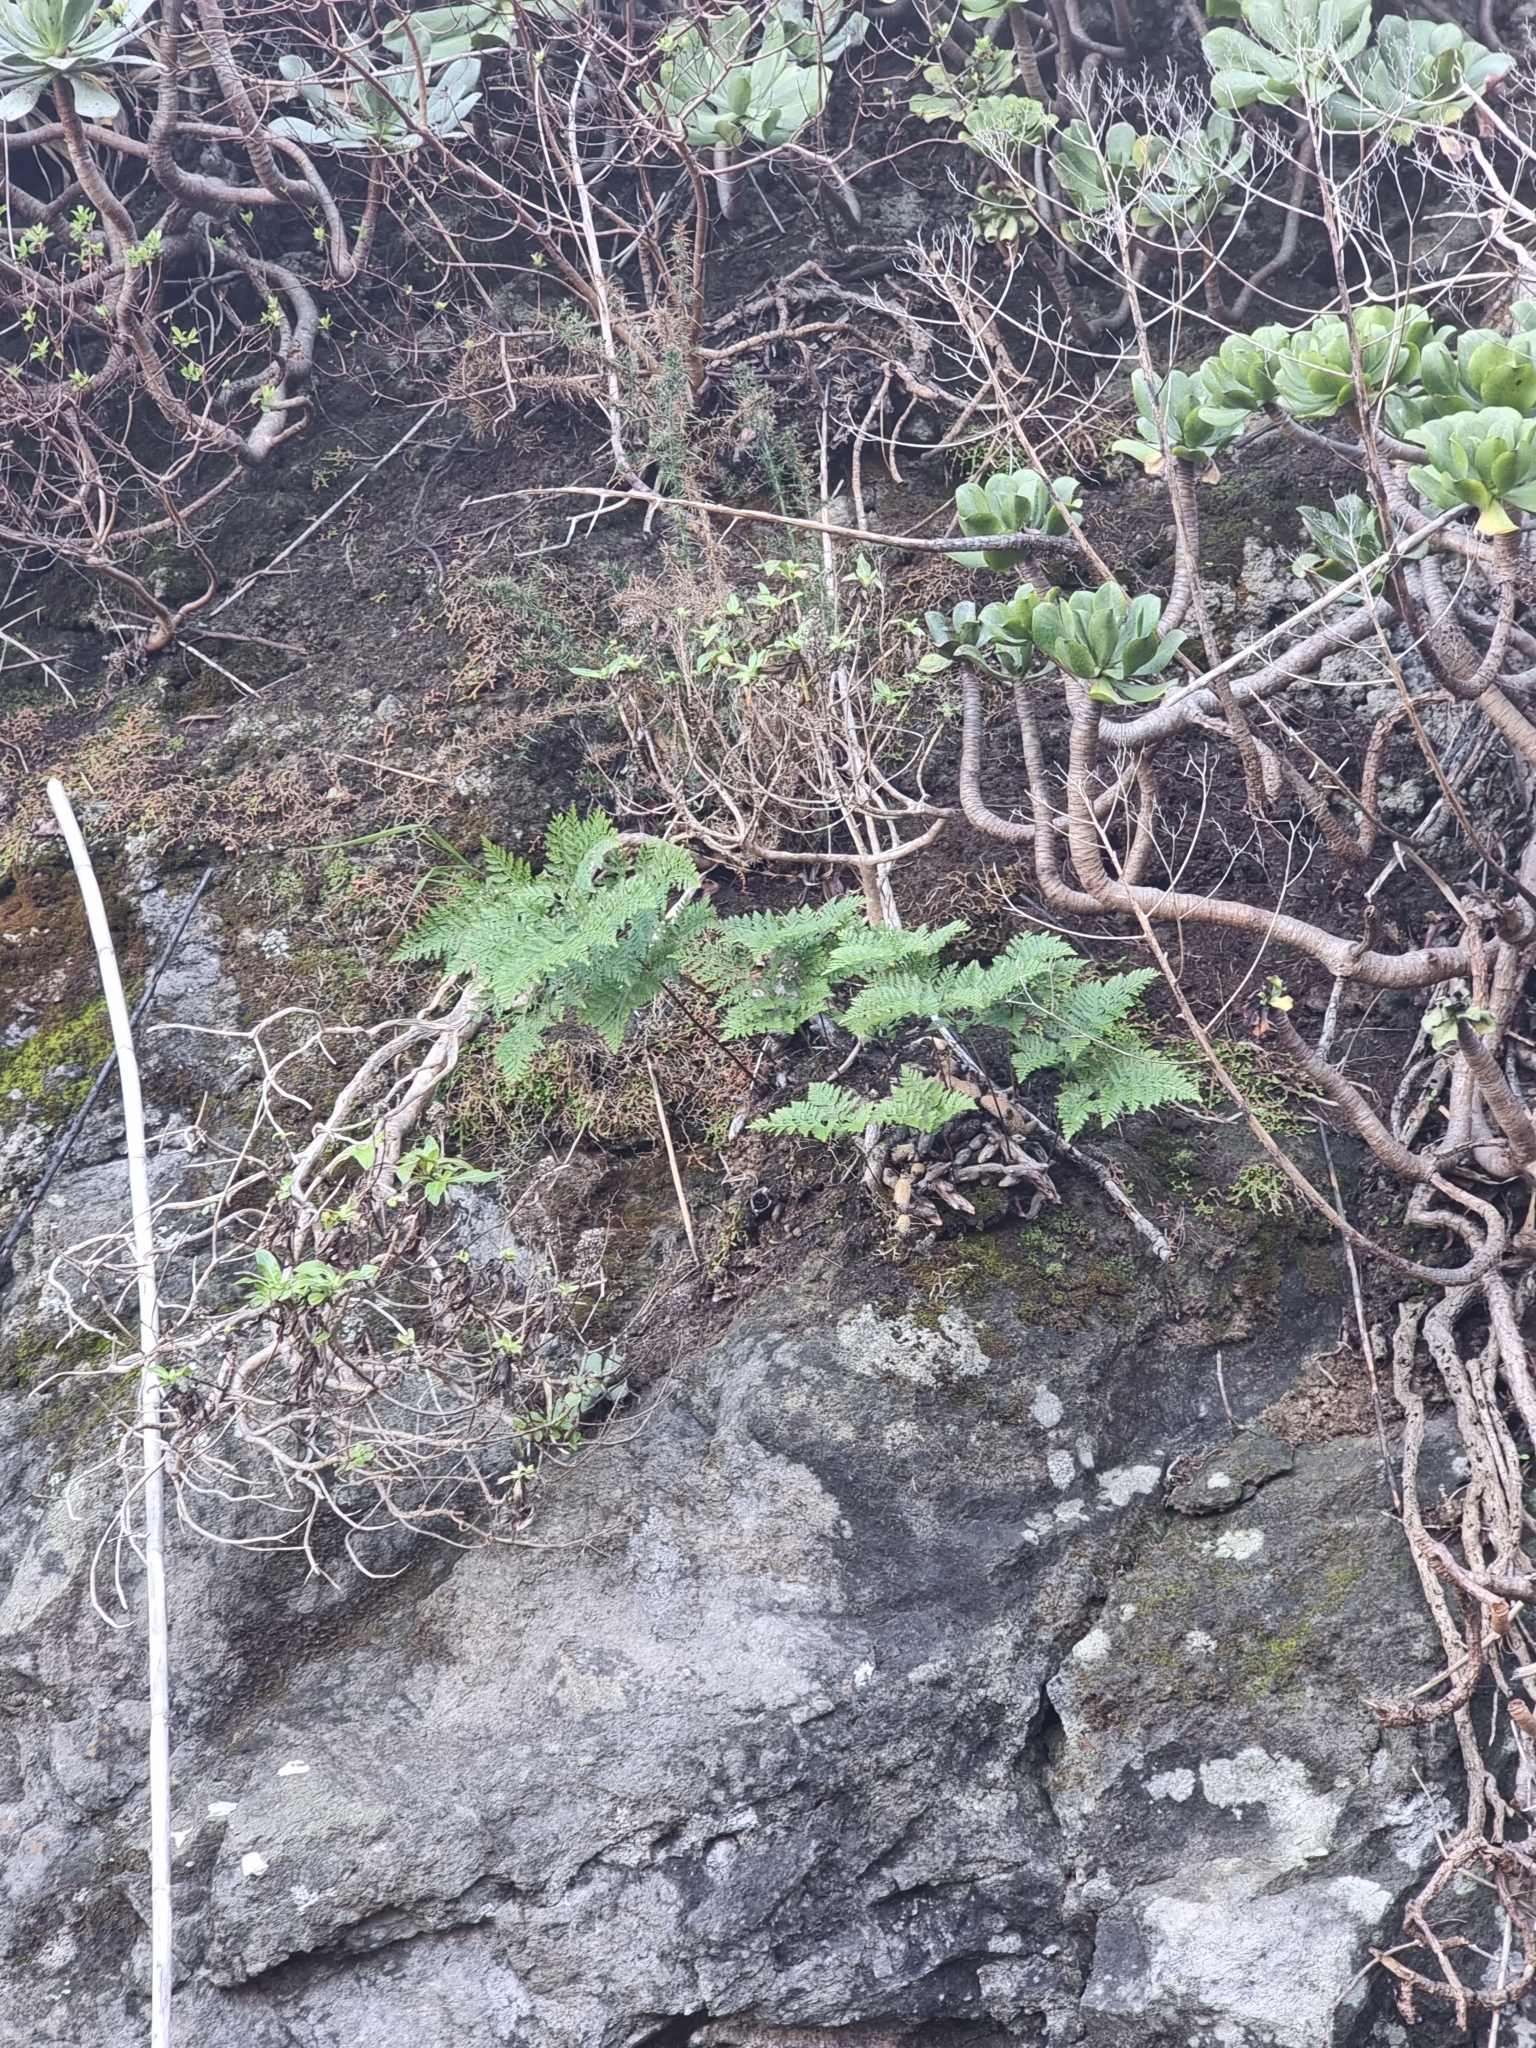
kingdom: Plantae
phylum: Tracheophyta
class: Polypodiopsida
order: Polypodiales
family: Davalliaceae
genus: Davallia
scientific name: Davallia canariensis
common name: Hare's-foot fern
